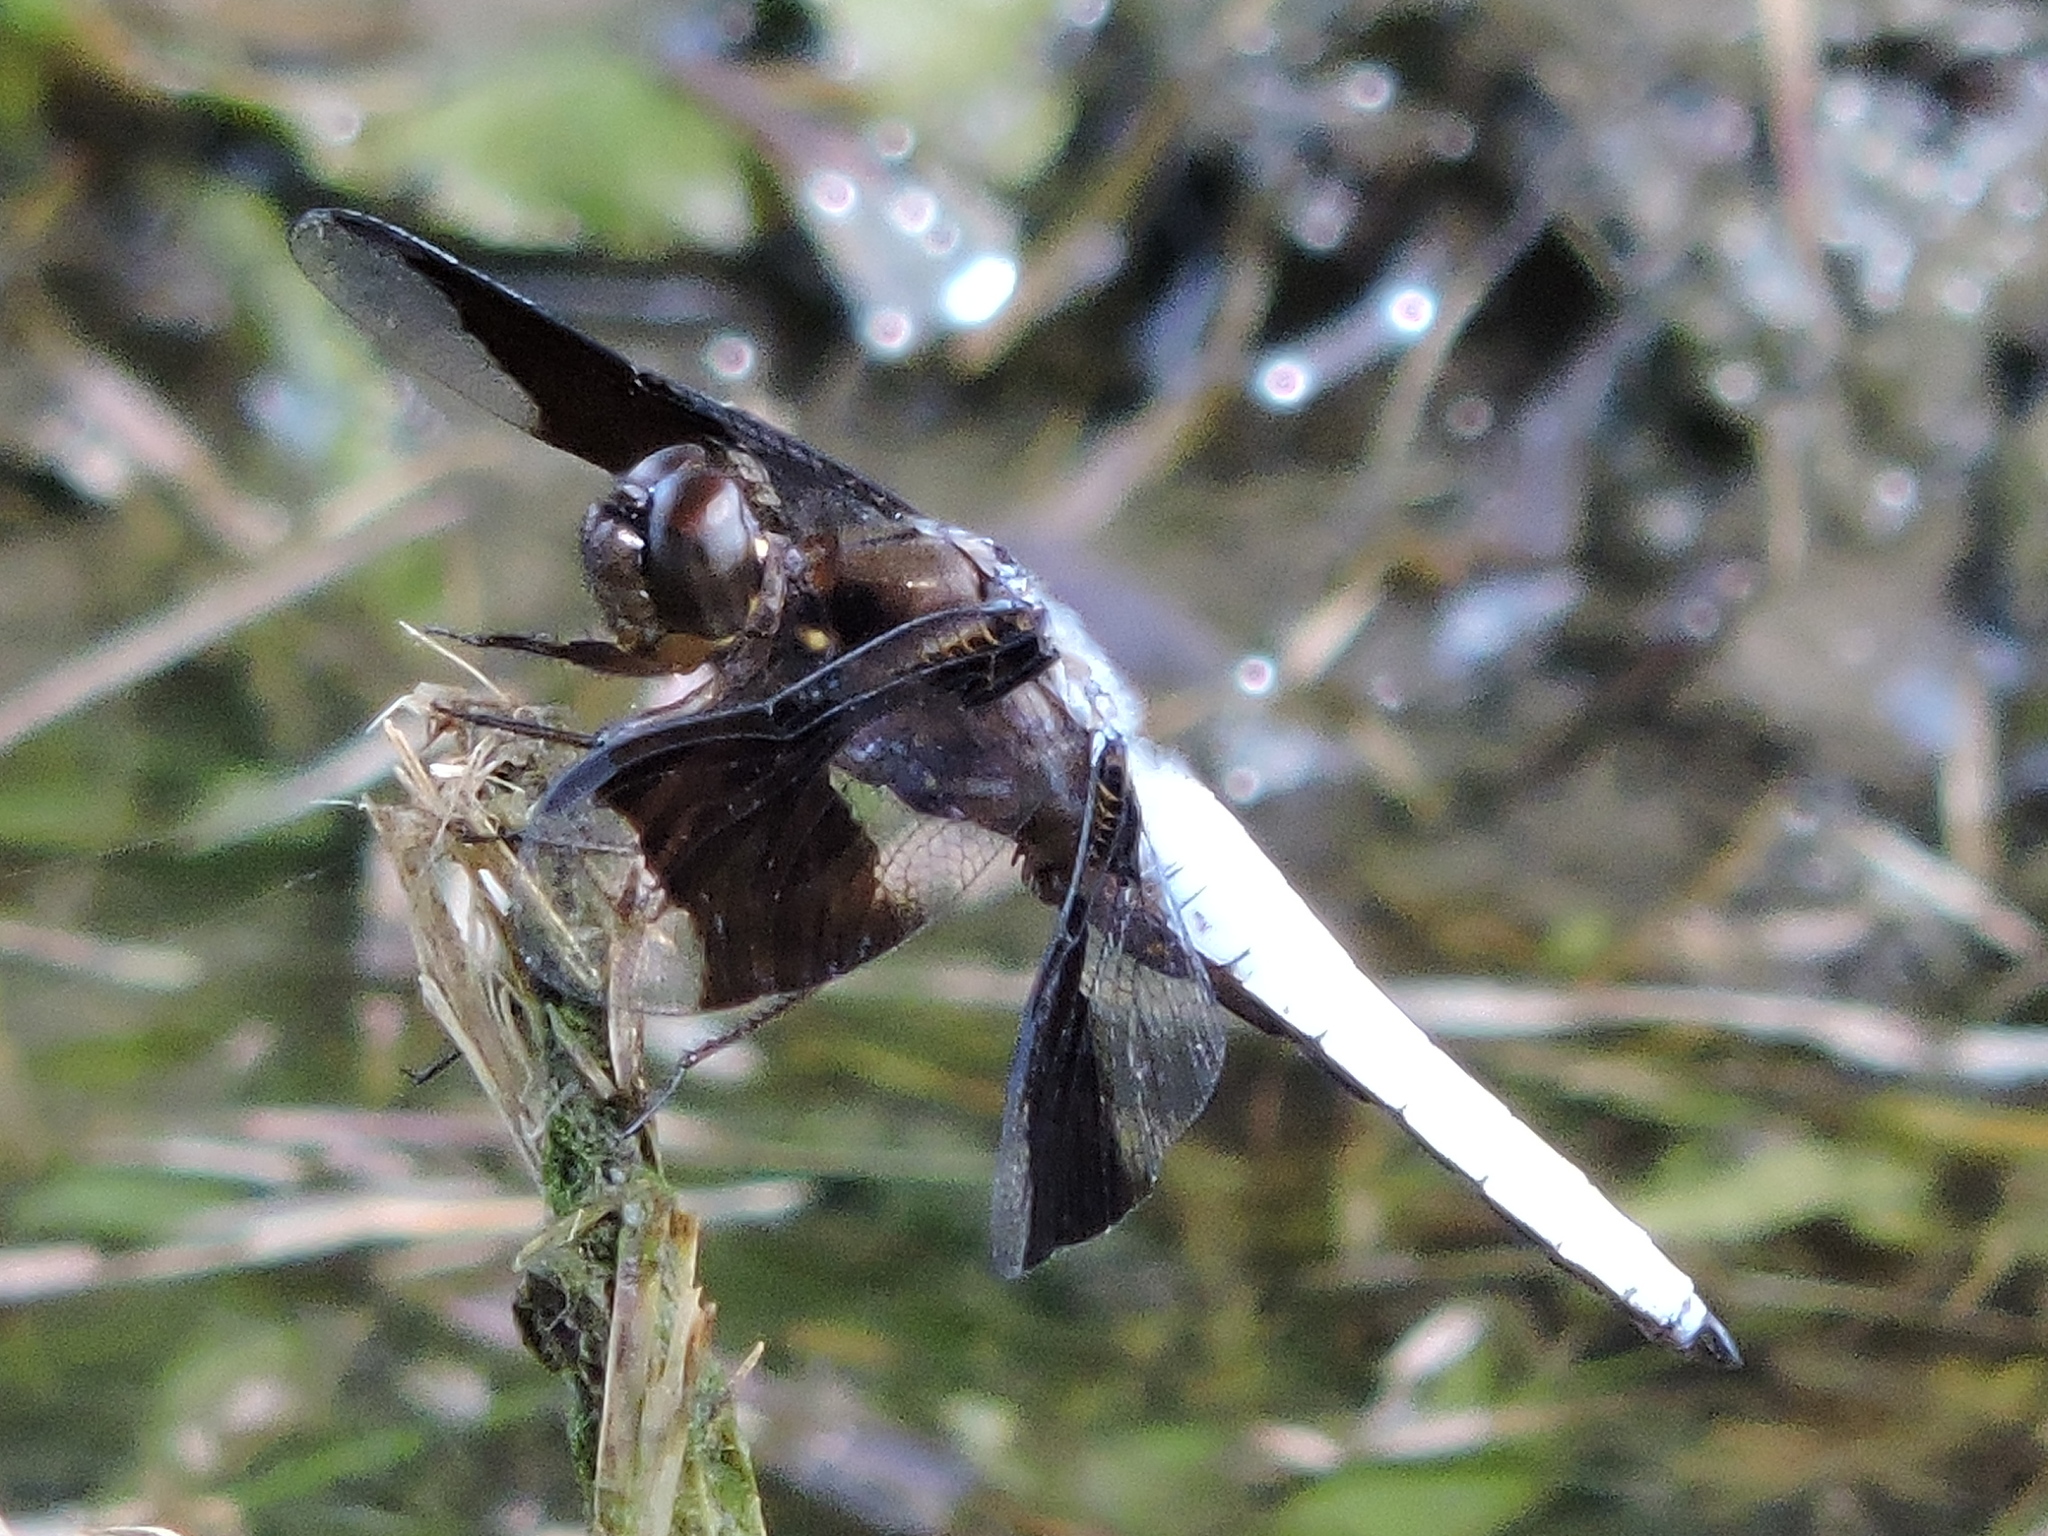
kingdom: Animalia
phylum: Arthropoda
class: Insecta
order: Odonata
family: Libellulidae
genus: Plathemis
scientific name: Plathemis lydia
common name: Common whitetail
